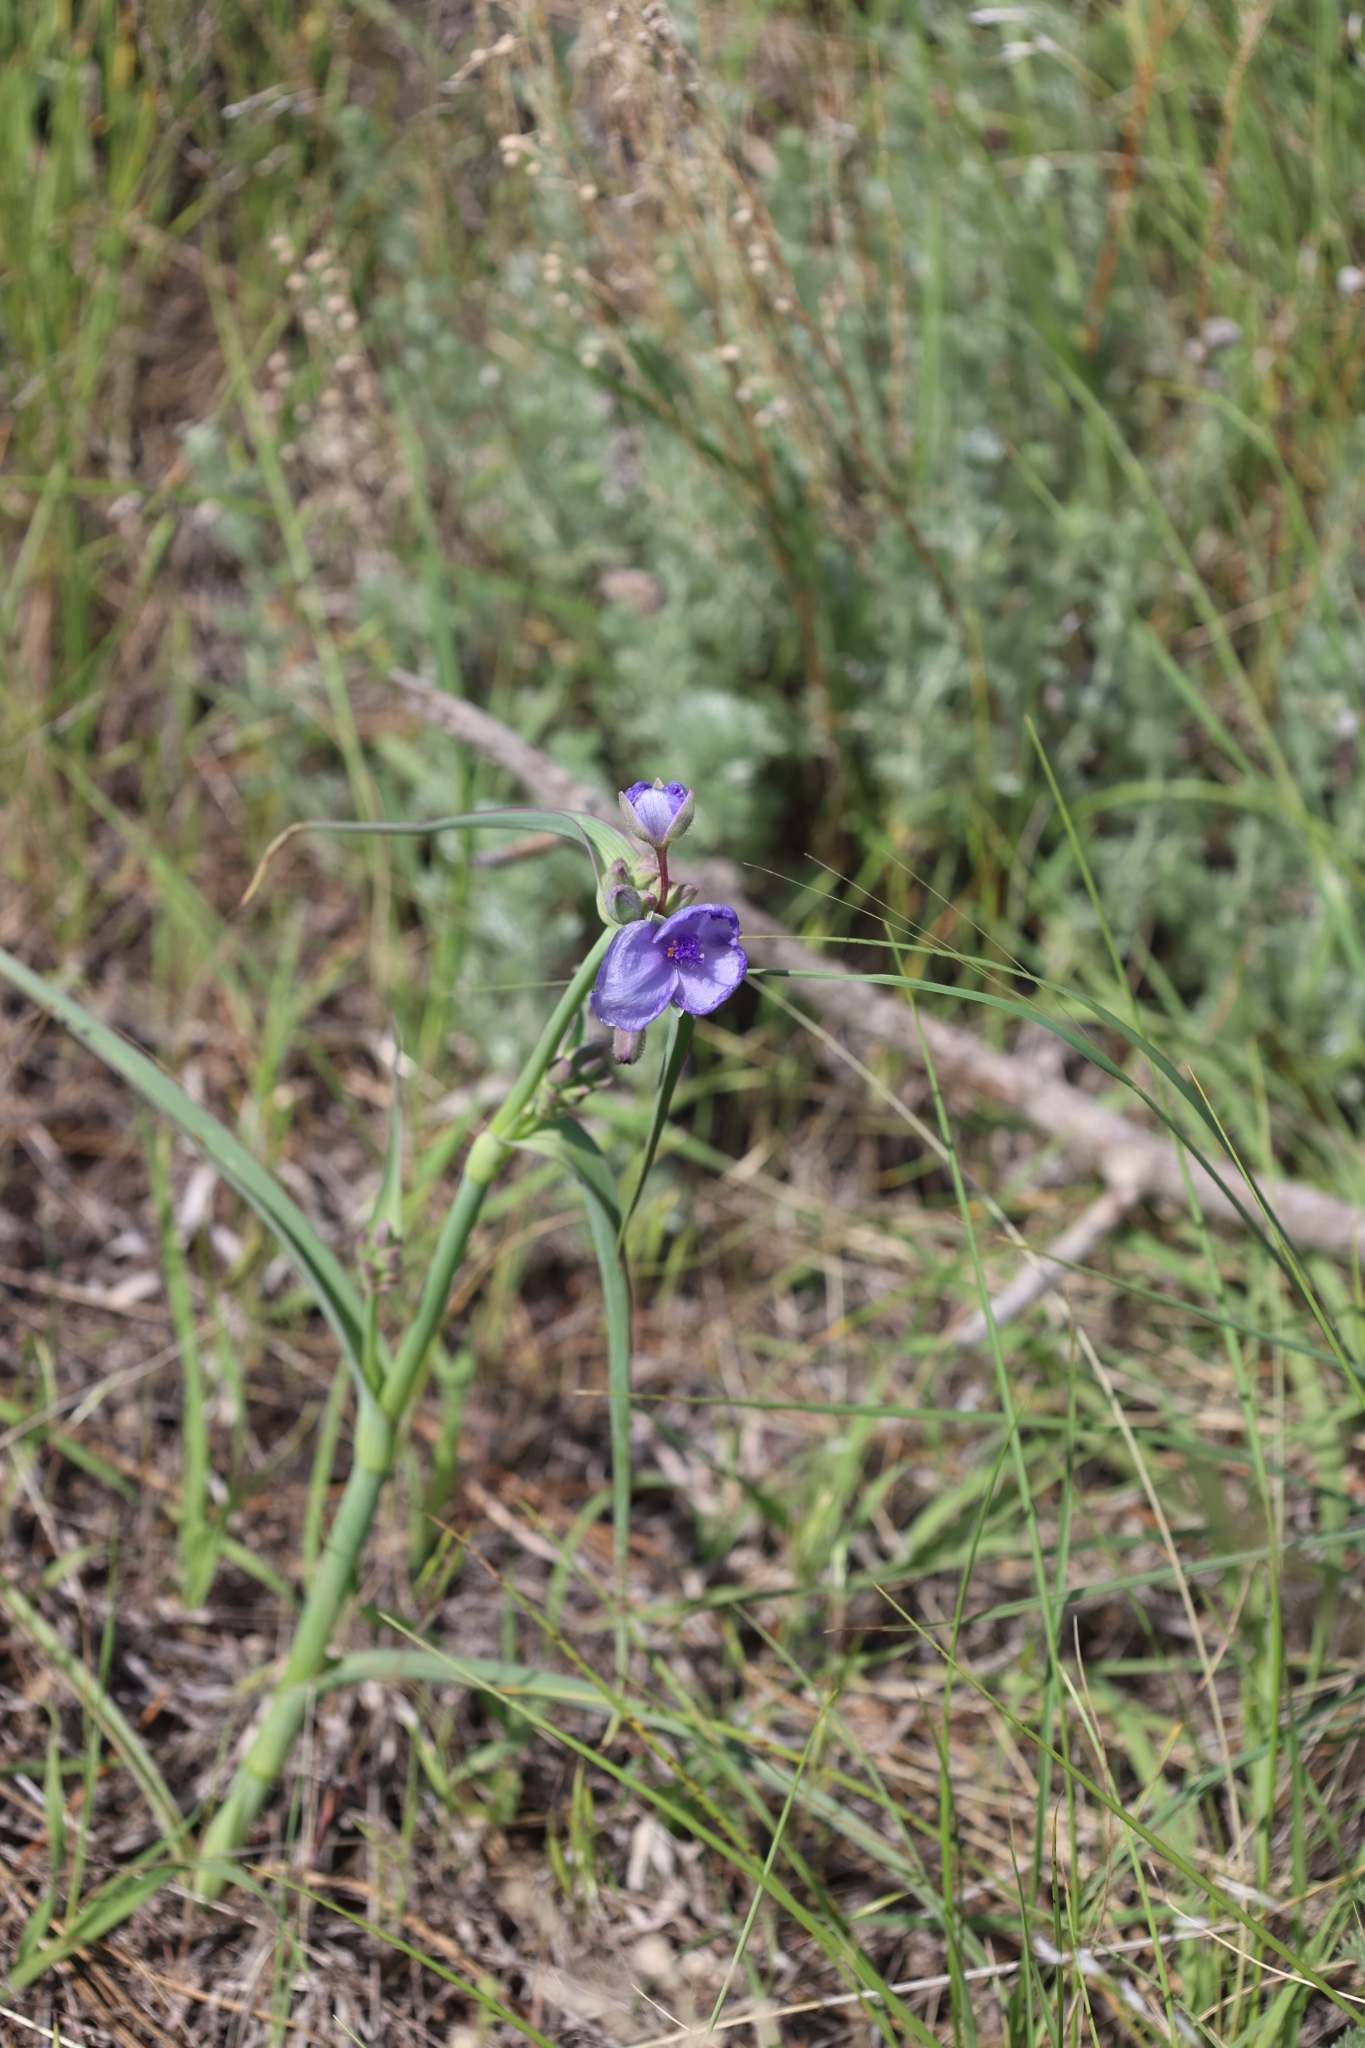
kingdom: Plantae
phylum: Tracheophyta
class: Liliopsida
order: Commelinales
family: Commelinaceae
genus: Tradescantia
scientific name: Tradescantia occidentalis
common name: Prairie spiderwort
